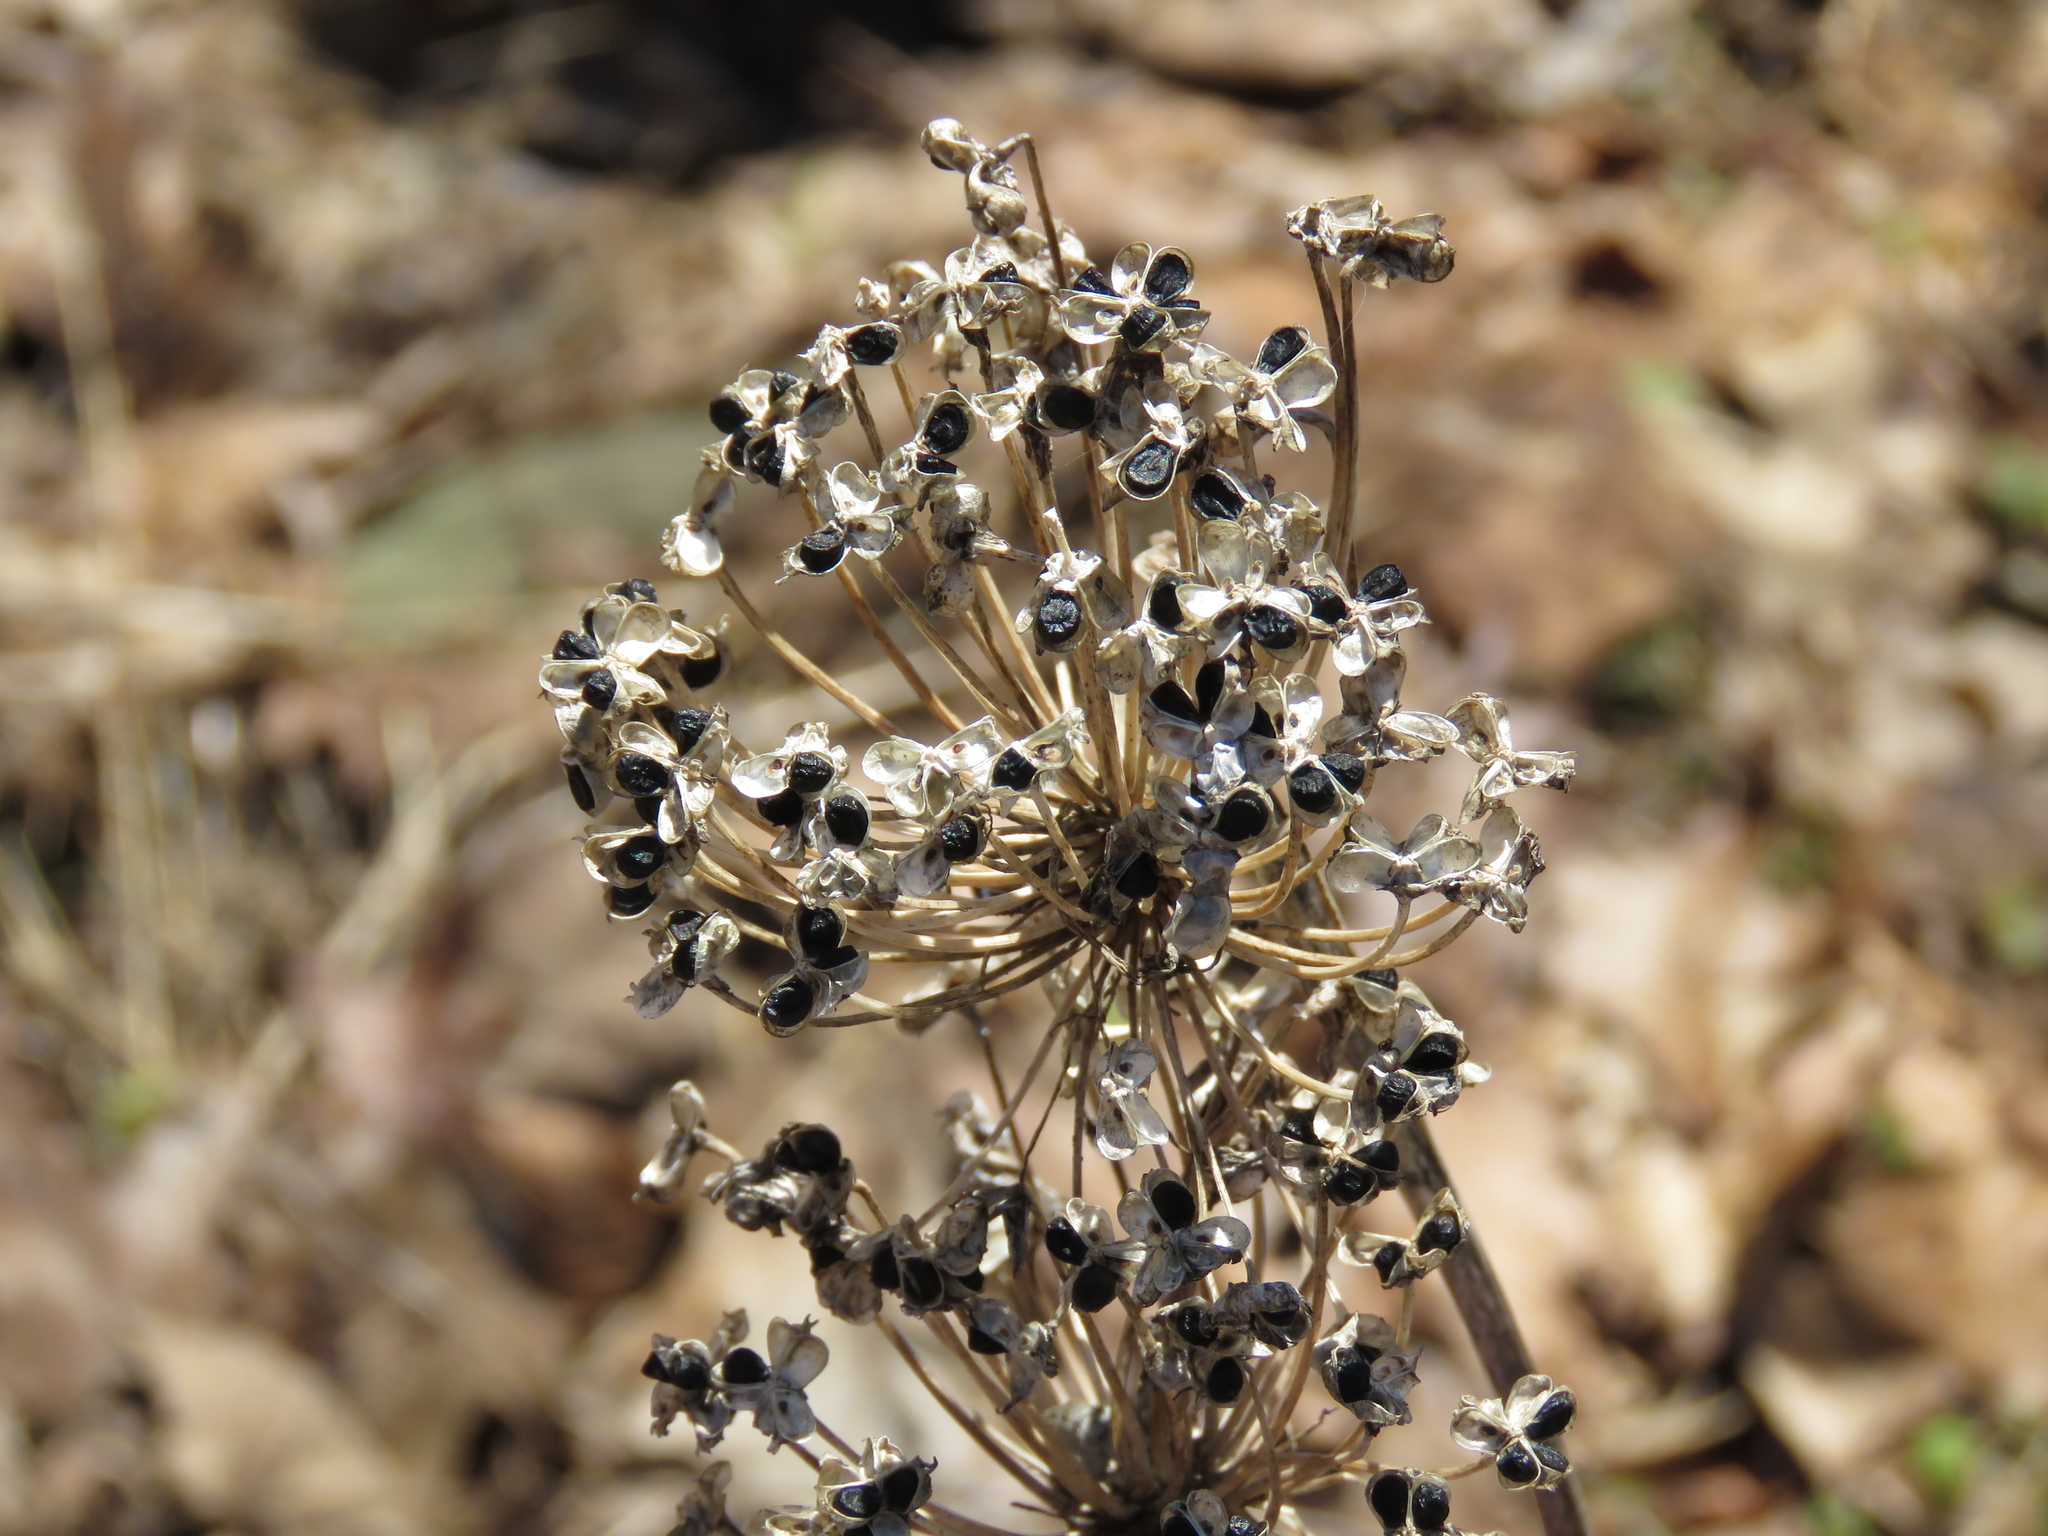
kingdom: Plantae
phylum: Tracheophyta
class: Liliopsida
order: Asparagales
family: Amaryllidaceae
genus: Allium
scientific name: Allium cernuum
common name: Nodding onion
